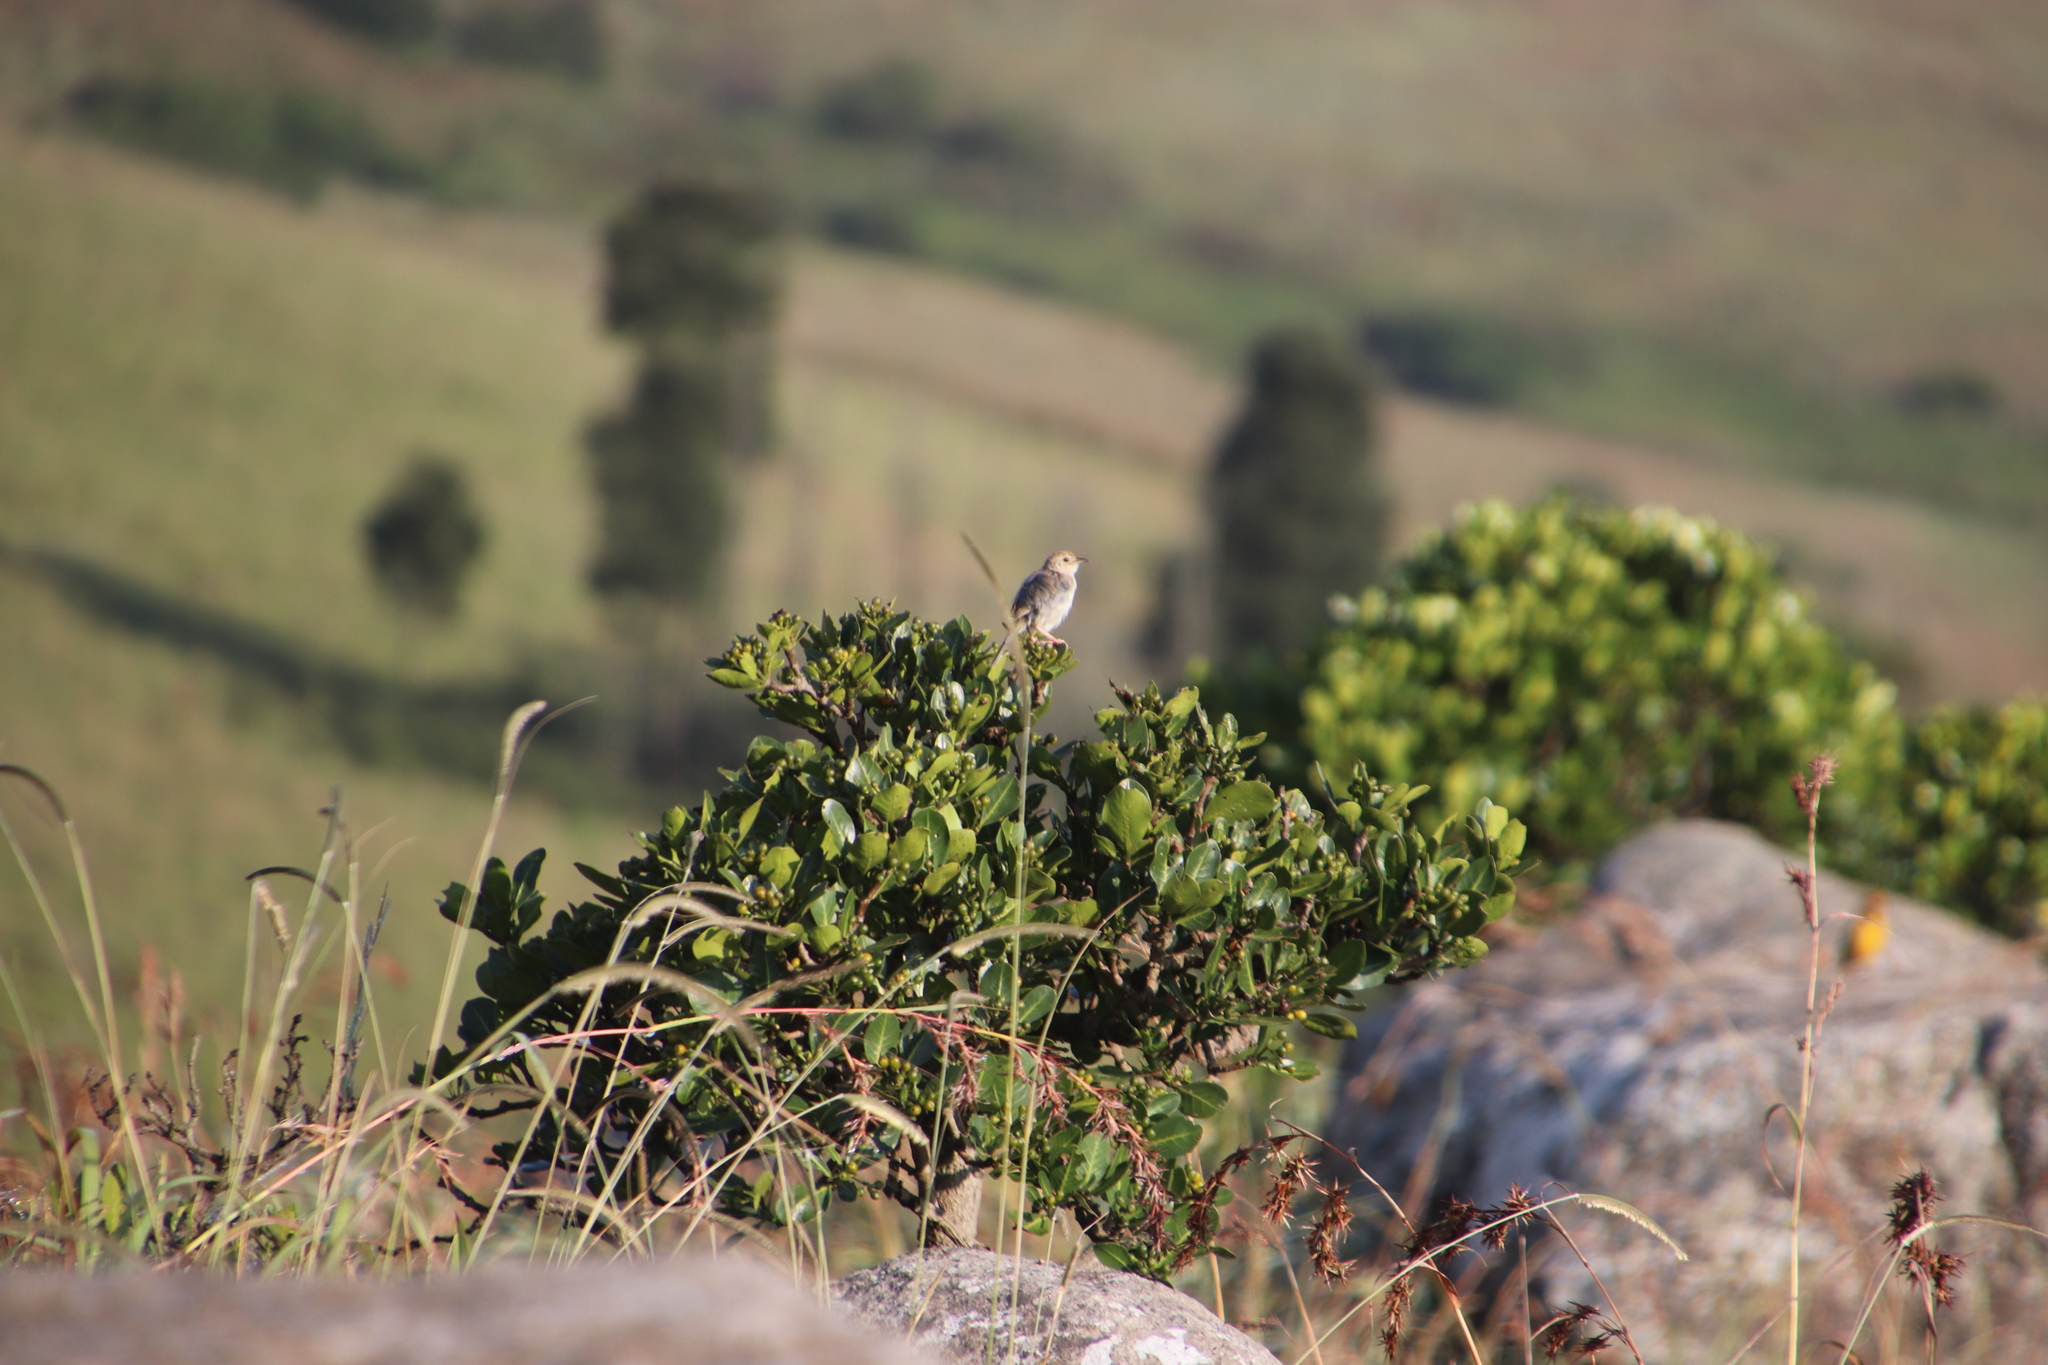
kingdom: Plantae
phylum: Tracheophyta
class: Magnoliopsida
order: Gentianales
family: Rubiaceae
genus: Psychotria
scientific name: Psychotria
